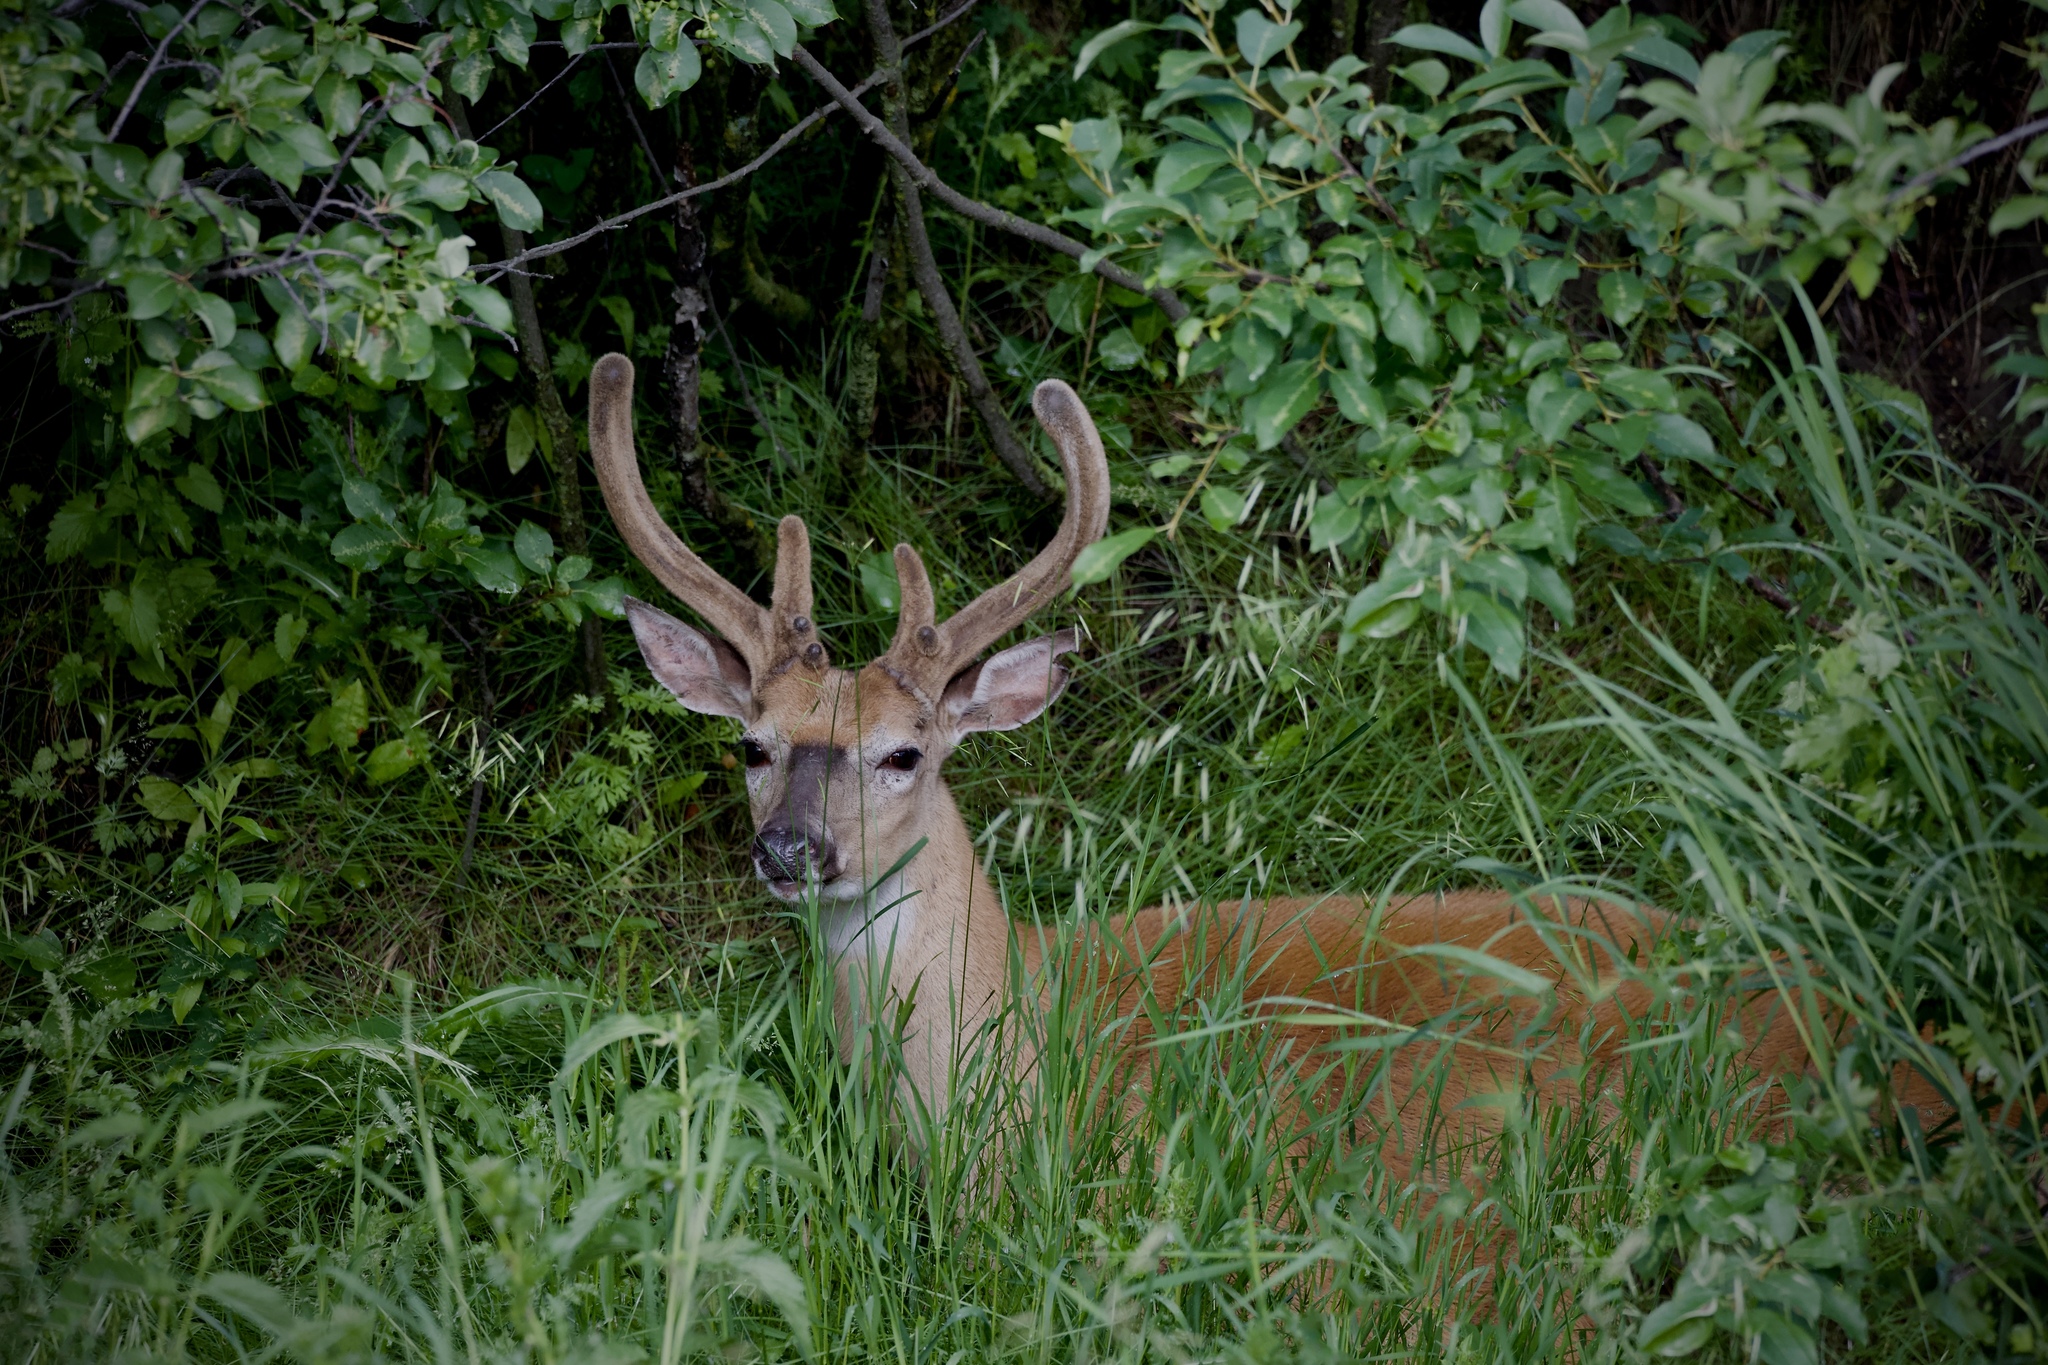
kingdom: Animalia
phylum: Chordata
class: Mammalia
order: Artiodactyla
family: Cervidae
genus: Odocoileus
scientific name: Odocoileus virginianus
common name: White-tailed deer
